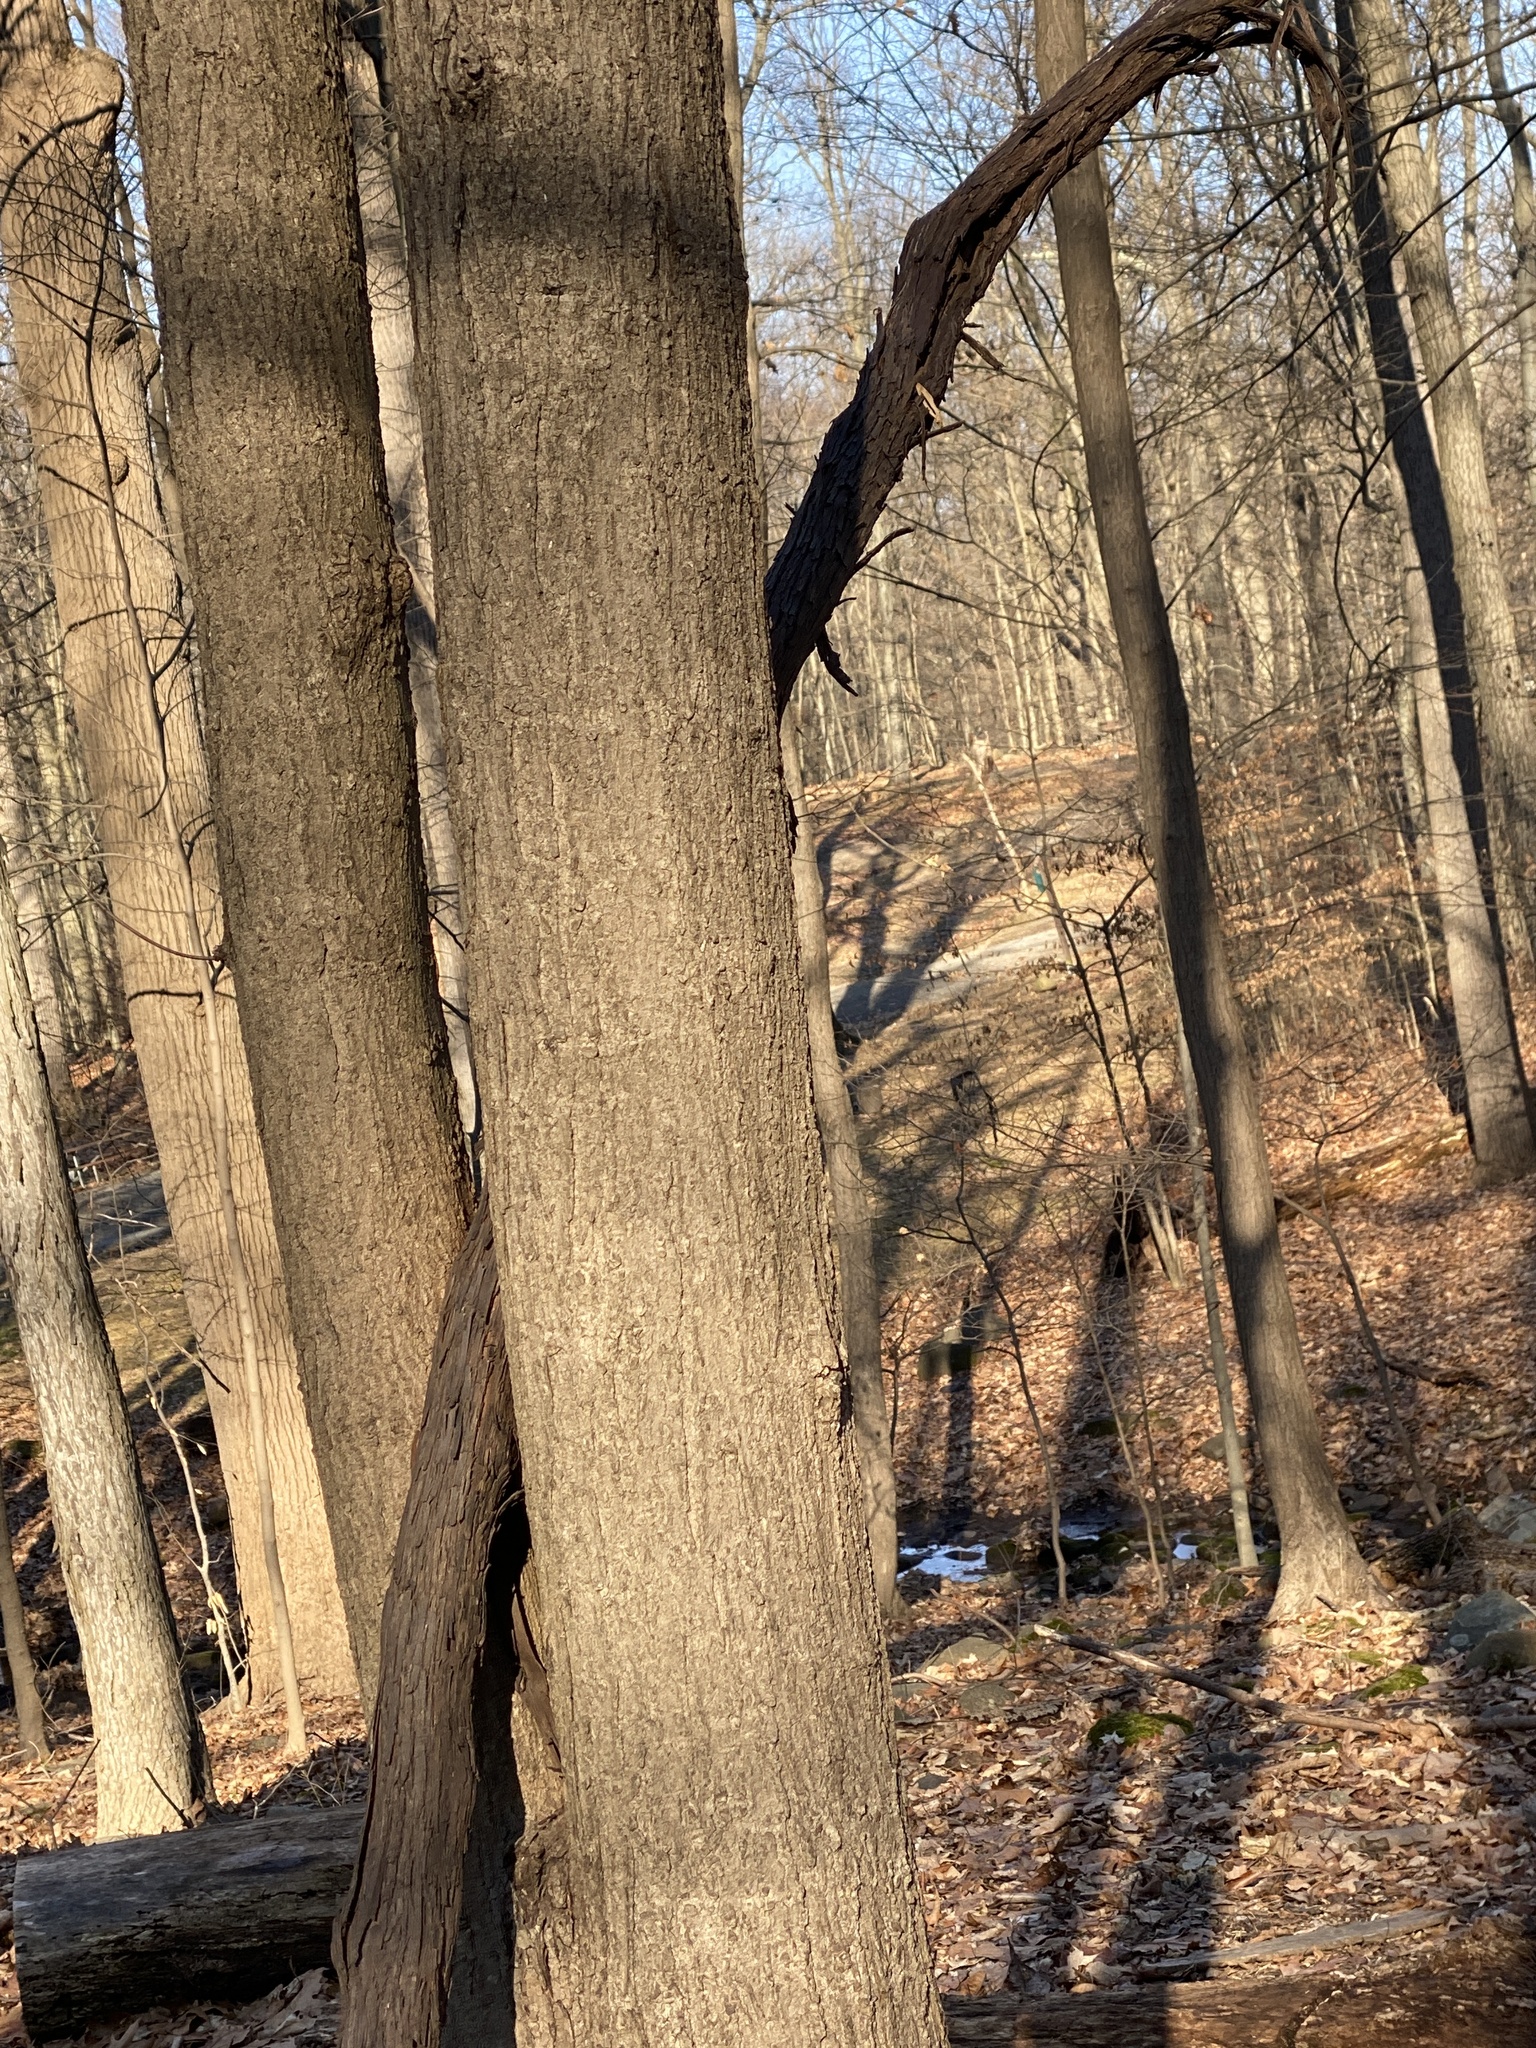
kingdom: Plantae
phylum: Tracheophyta
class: Magnoliopsida
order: Vitales
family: Vitaceae
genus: Vitis
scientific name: Vitis
